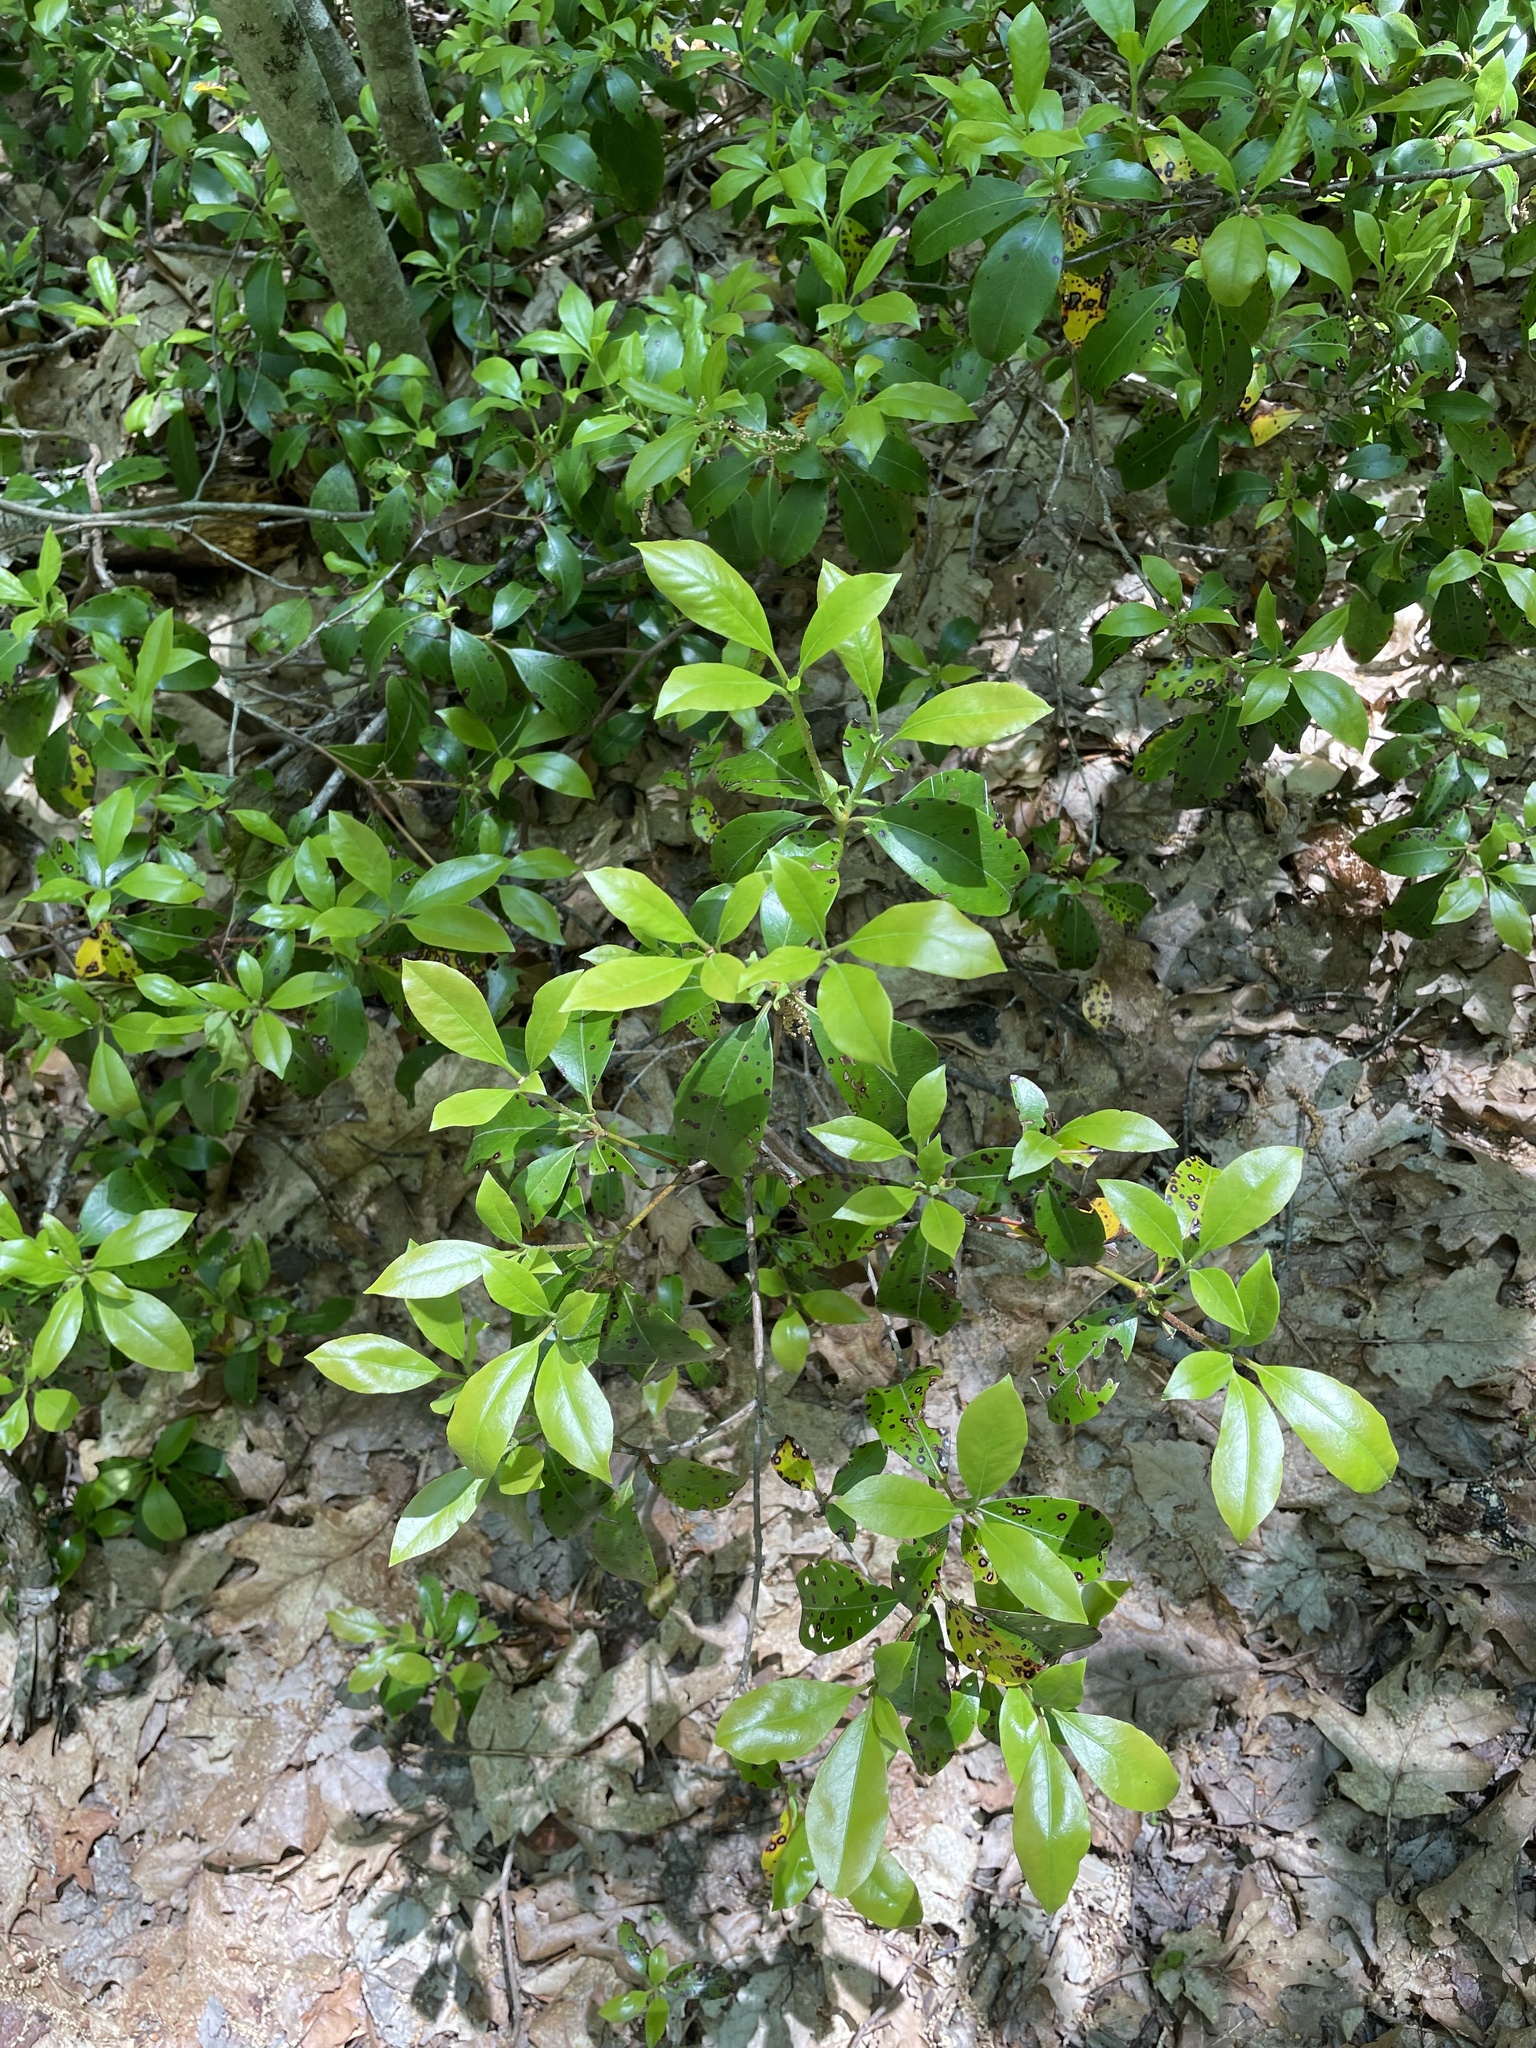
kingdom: Plantae
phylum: Tracheophyta
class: Magnoliopsida
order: Ericales
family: Ericaceae
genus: Kalmia
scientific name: Kalmia latifolia
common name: Mountain-laurel
